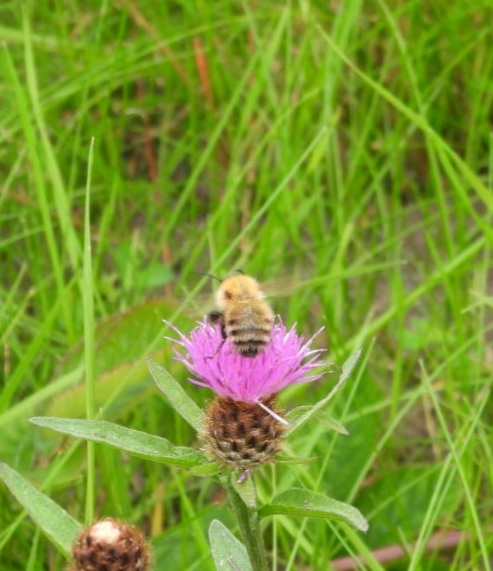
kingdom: Animalia
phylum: Arthropoda
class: Insecta
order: Hymenoptera
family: Apidae
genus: Bombus
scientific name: Bombus pascuorum
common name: Common carder bee
